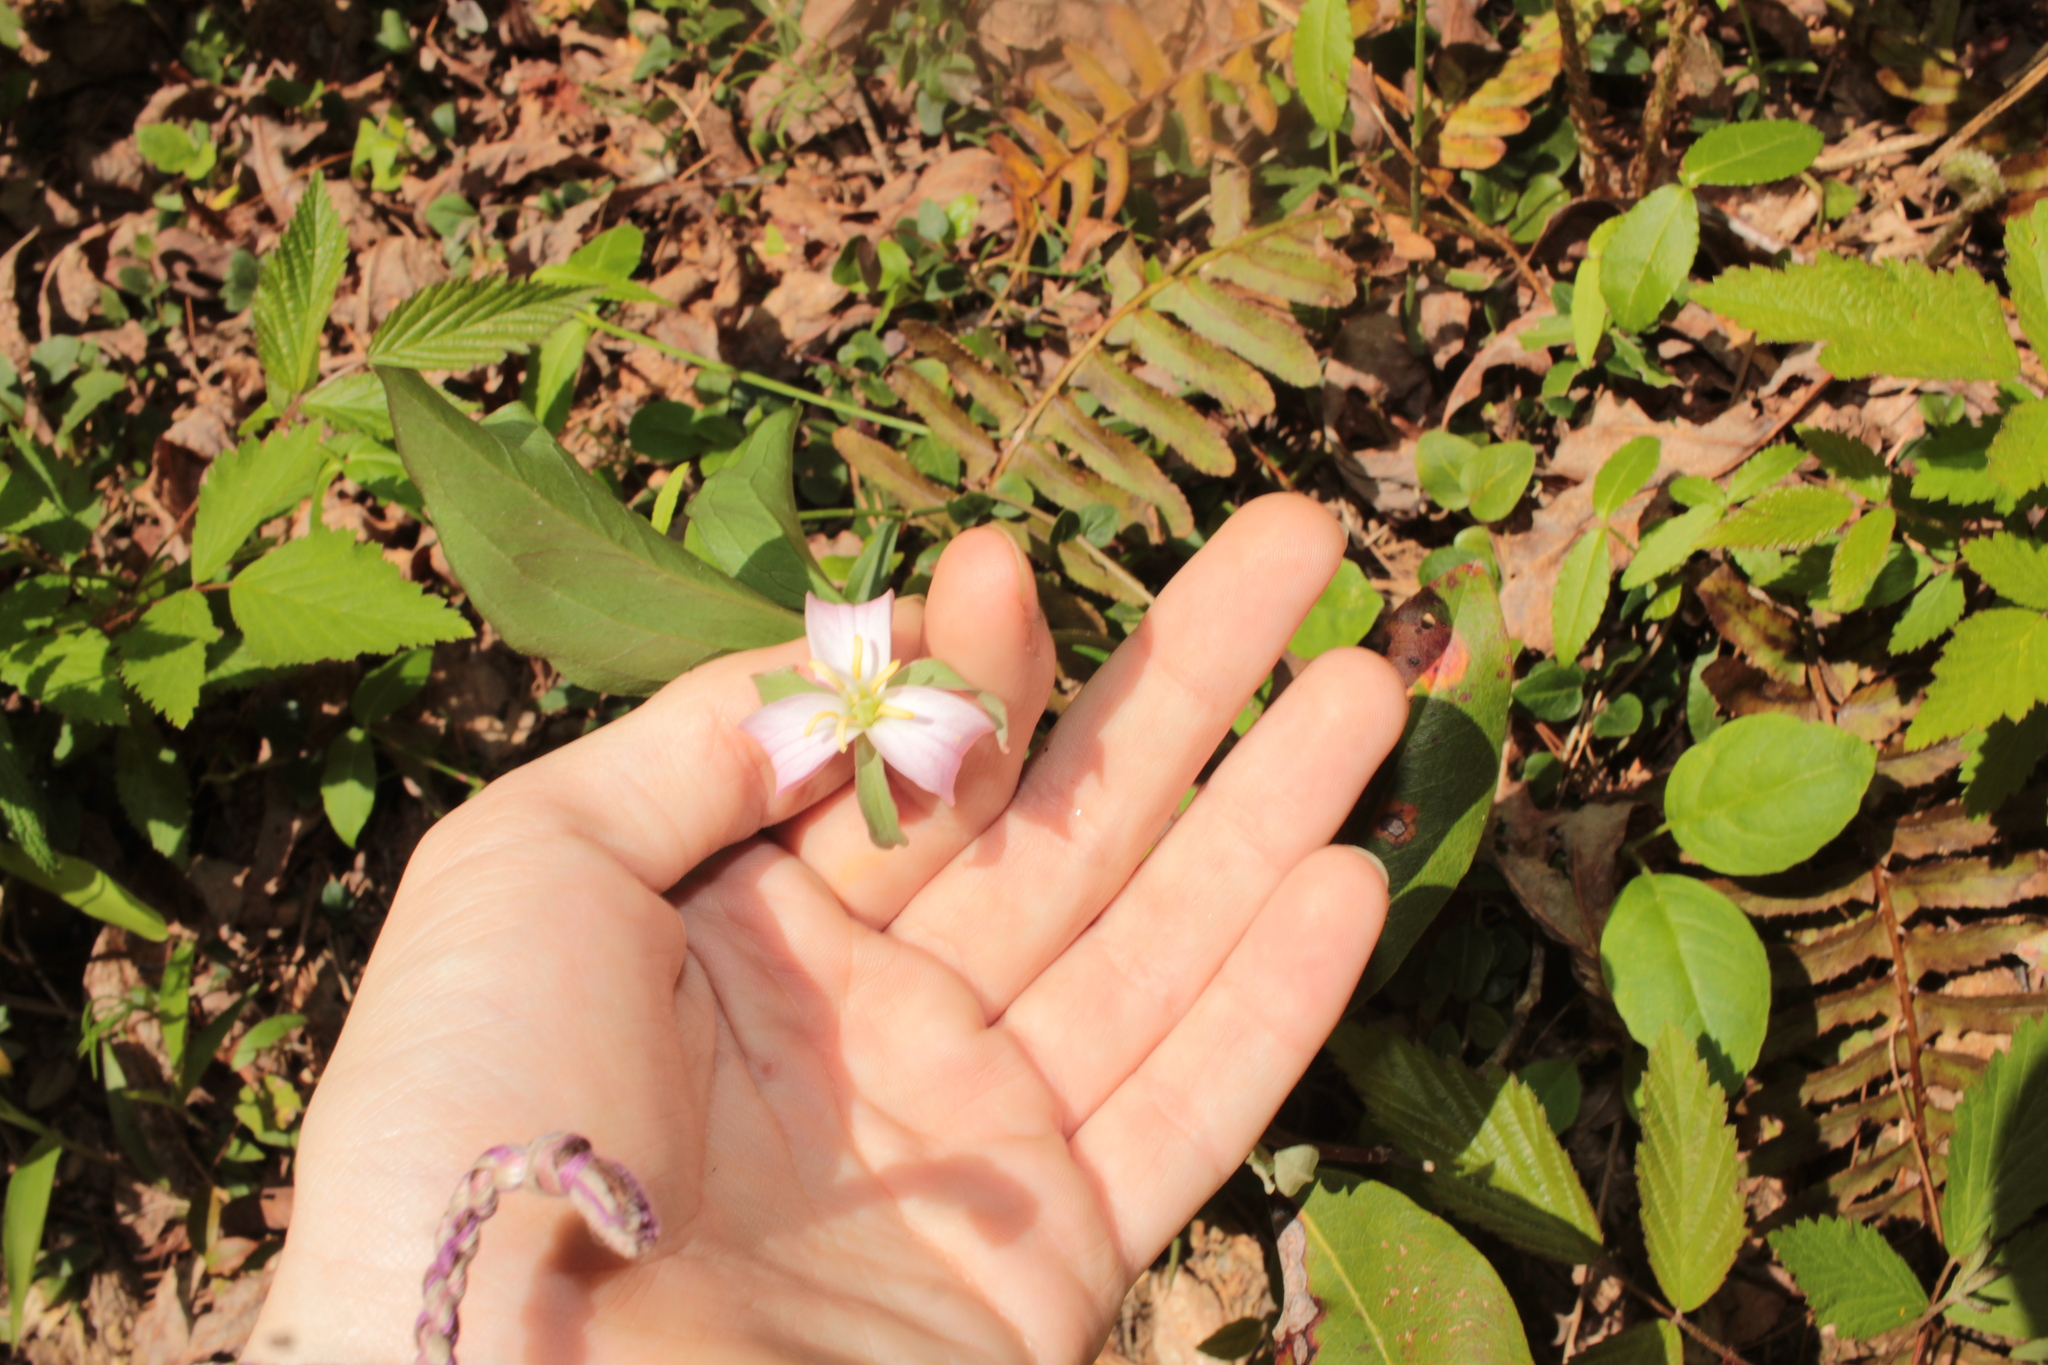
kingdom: Plantae
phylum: Tracheophyta
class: Liliopsida
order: Liliales
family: Melanthiaceae
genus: Trillium
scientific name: Trillium catesbaei
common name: Bashful trillium
